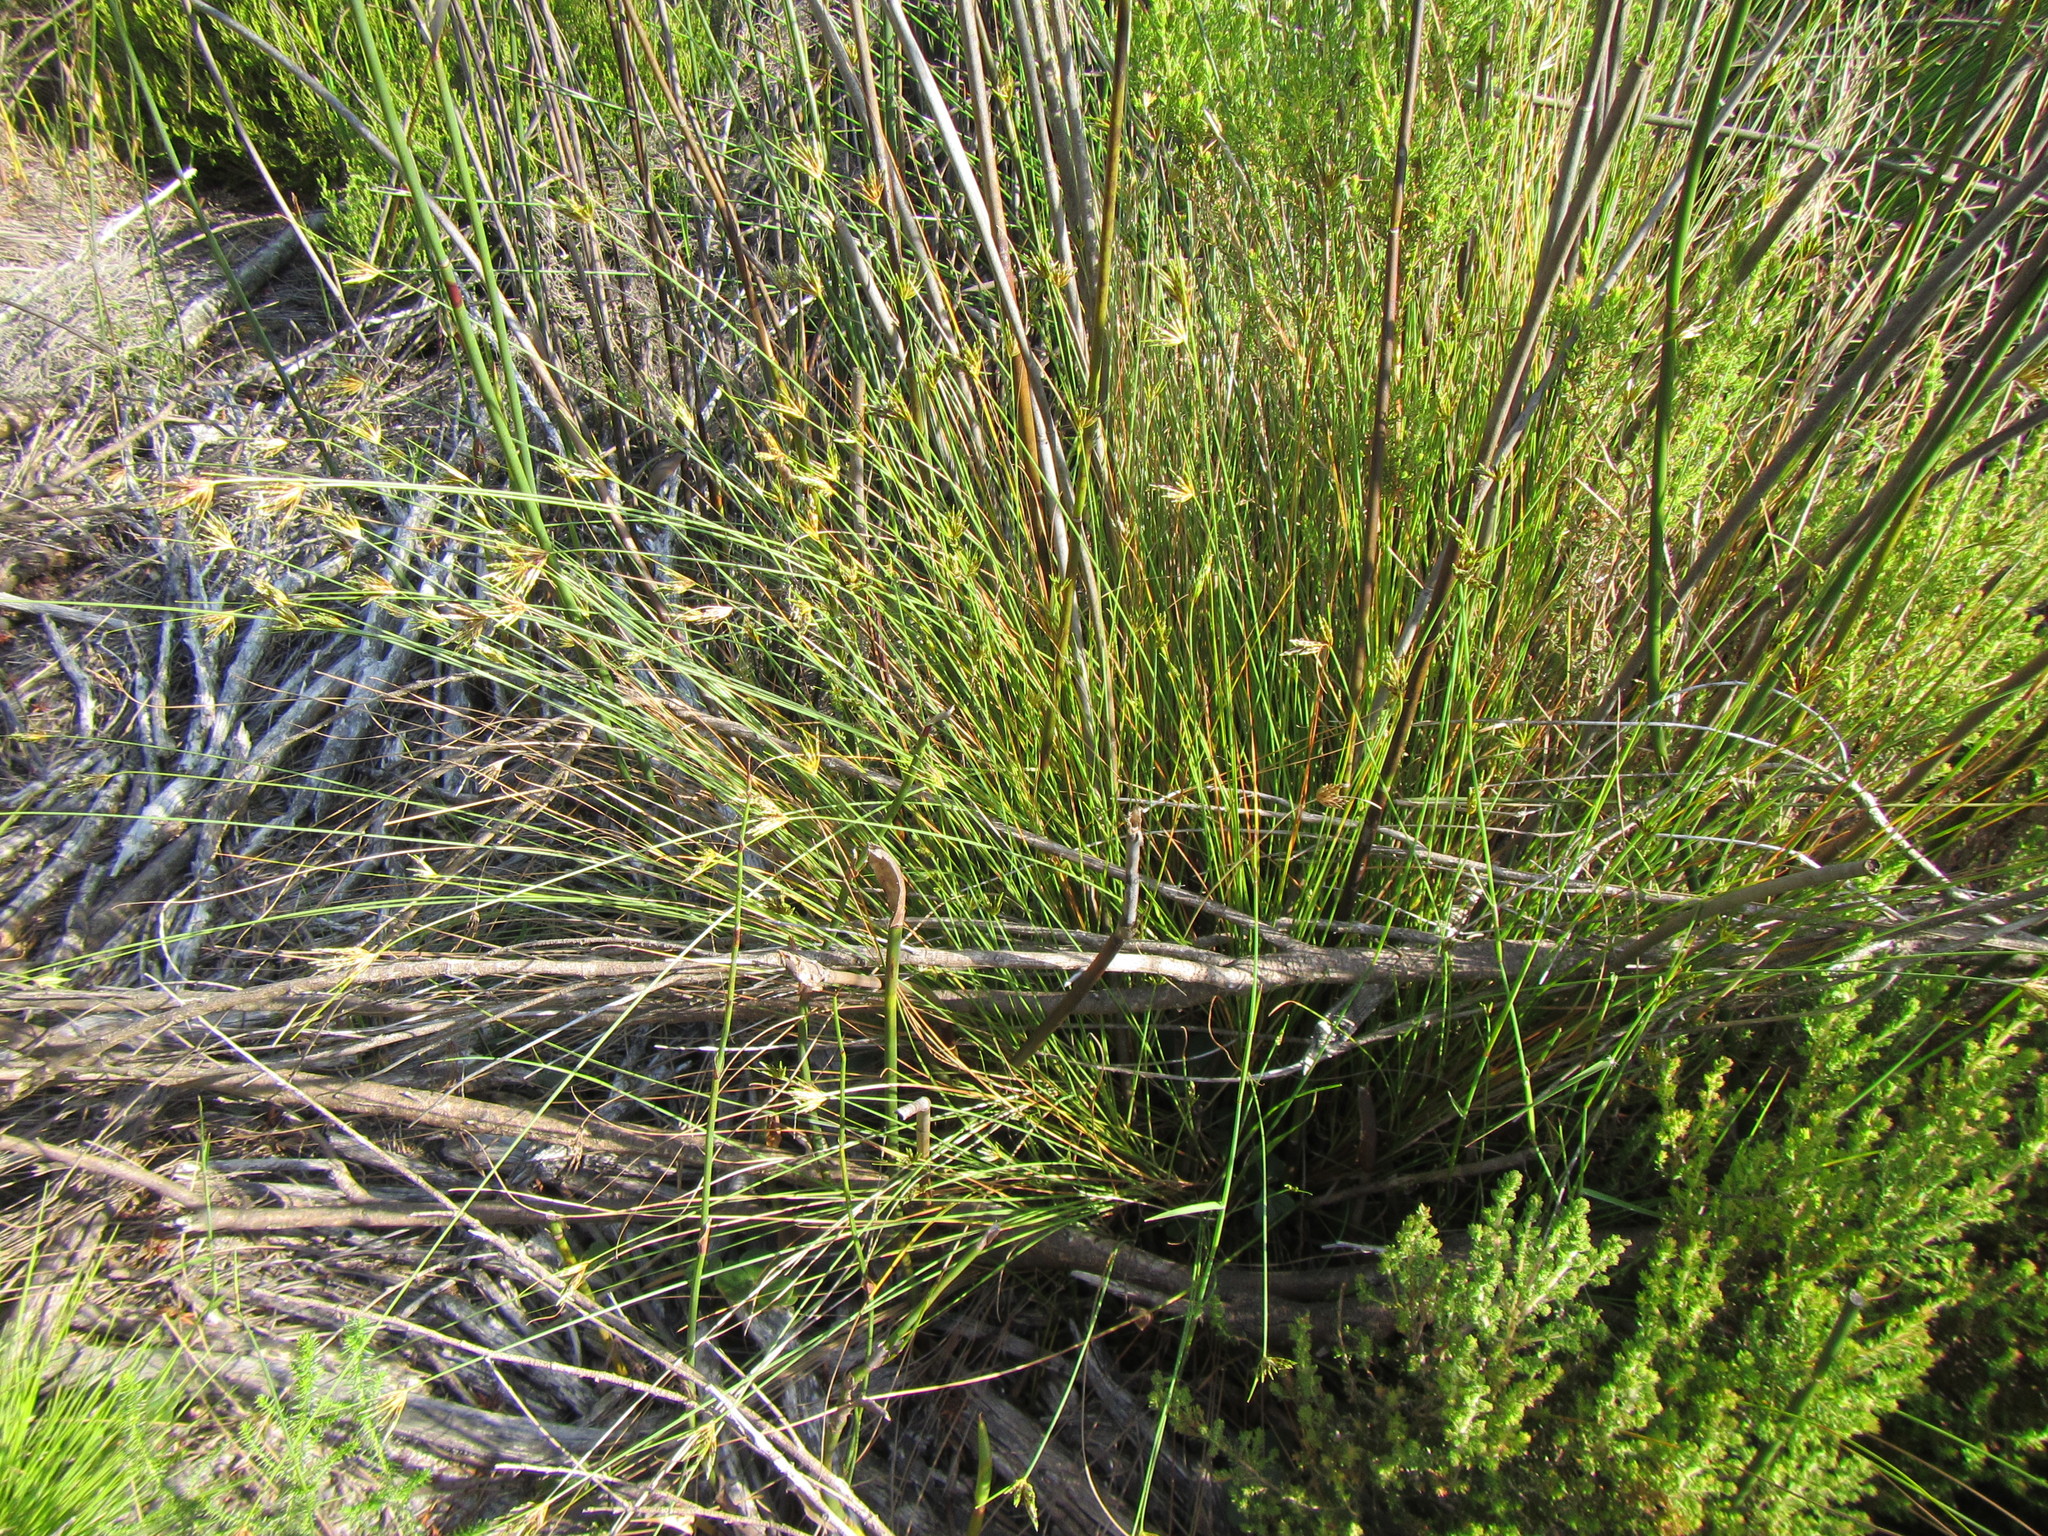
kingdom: Plantae
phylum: Tracheophyta
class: Liliopsida
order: Poales
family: Cyperaceae
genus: Ficinia
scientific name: Ficinia polystachya
